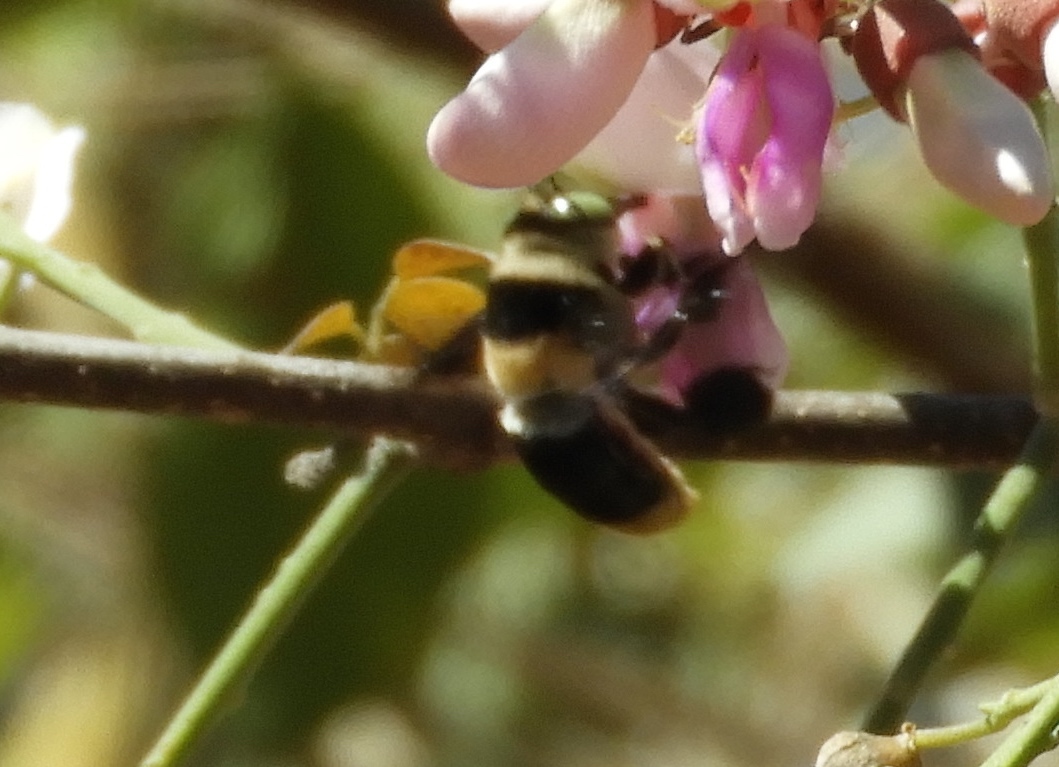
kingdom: Animalia
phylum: Arthropoda
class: Insecta
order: Hymenoptera
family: Apidae
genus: Centris
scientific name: Centris
